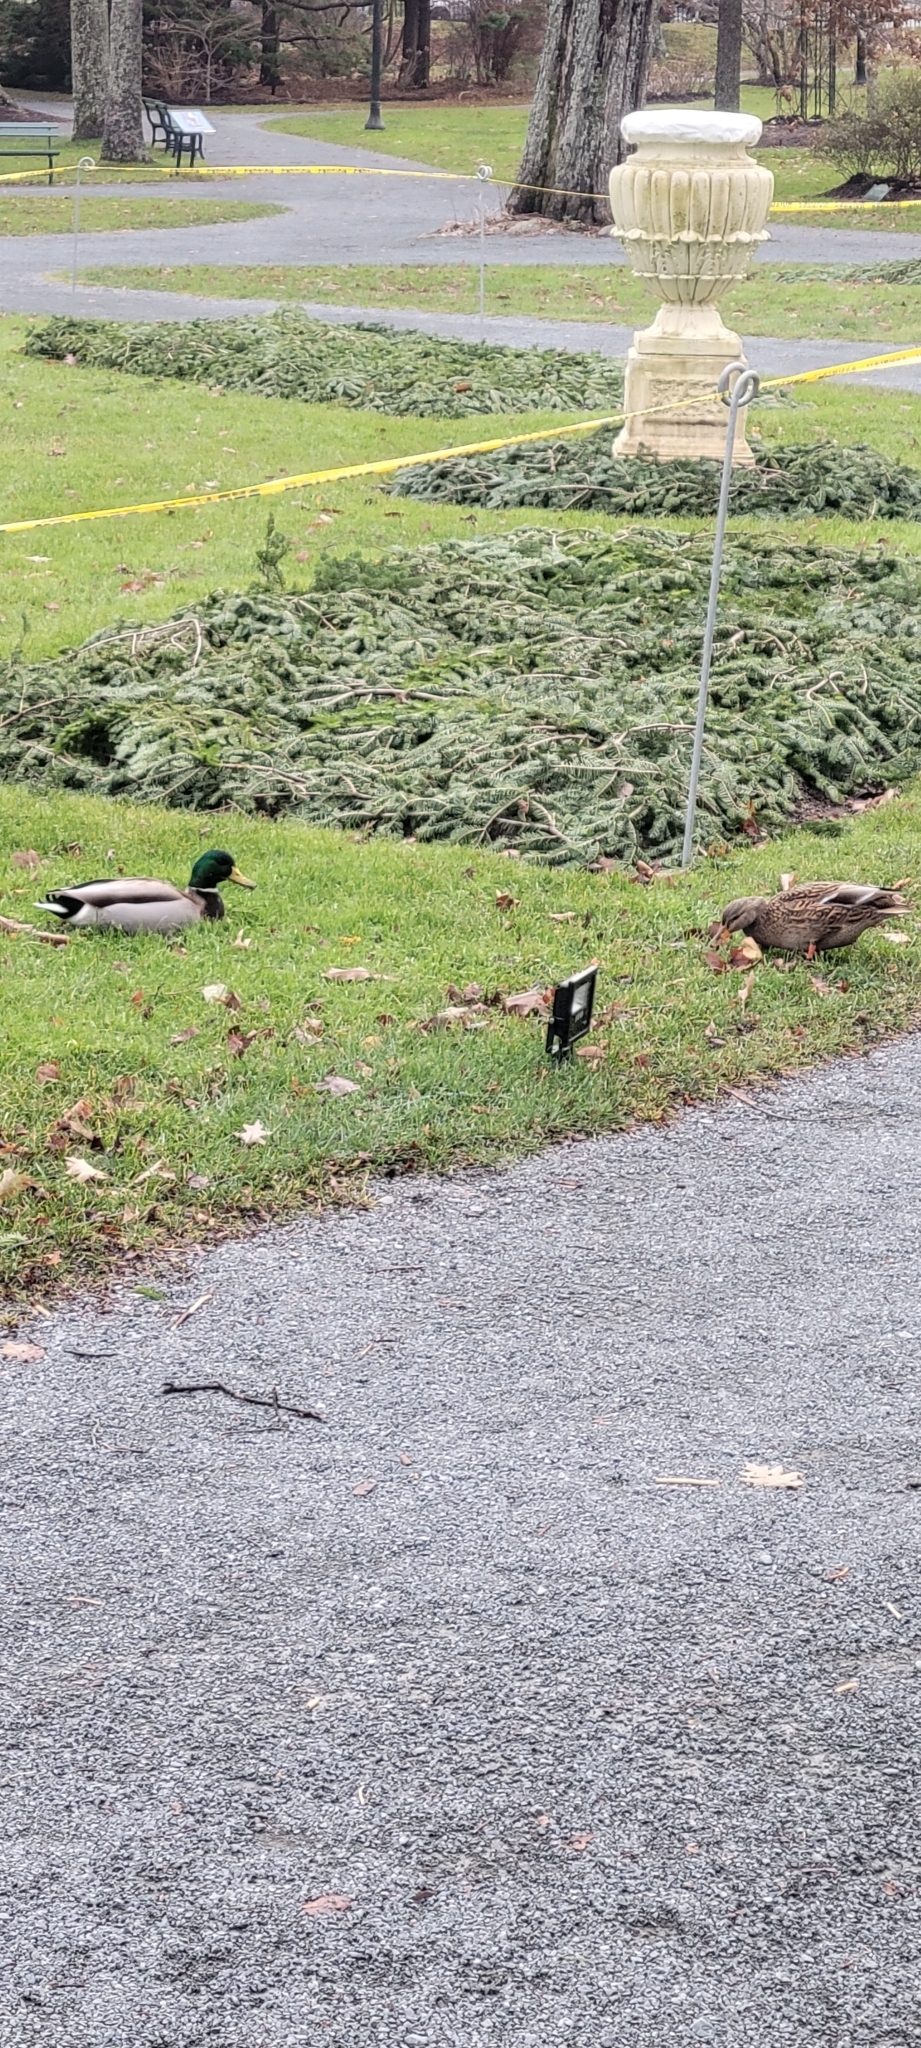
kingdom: Animalia
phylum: Chordata
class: Aves
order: Anseriformes
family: Anatidae
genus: Anas
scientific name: Anas platyrhynchos
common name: Mallard
